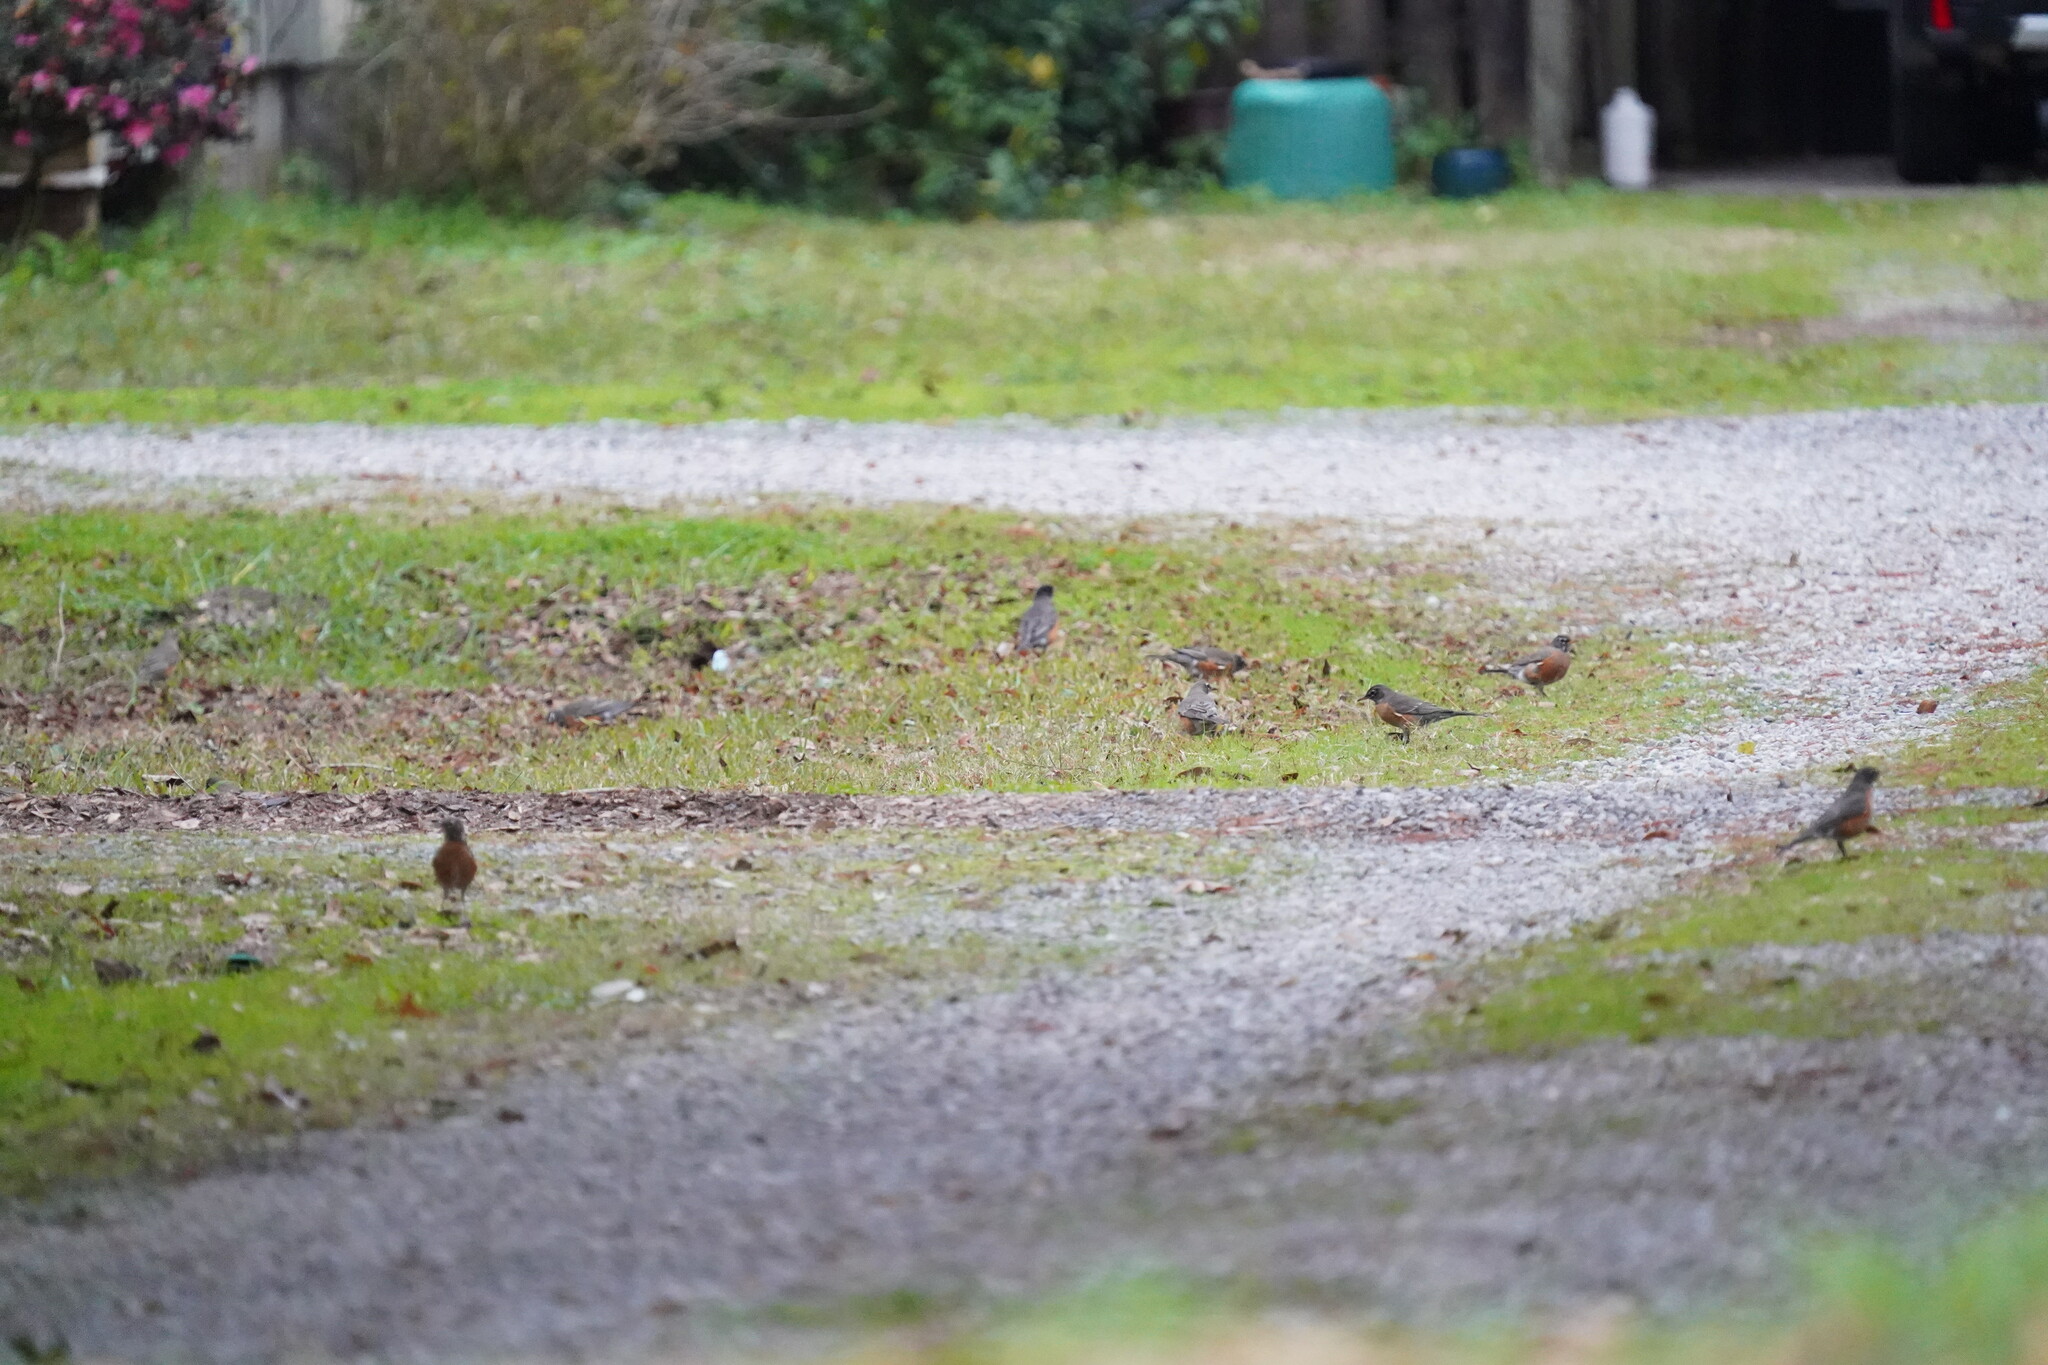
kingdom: Animalia
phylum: Chordata
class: Aves
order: Passeriformes
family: Turdidae
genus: Turdus
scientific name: Turdus migratorius
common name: American robin
